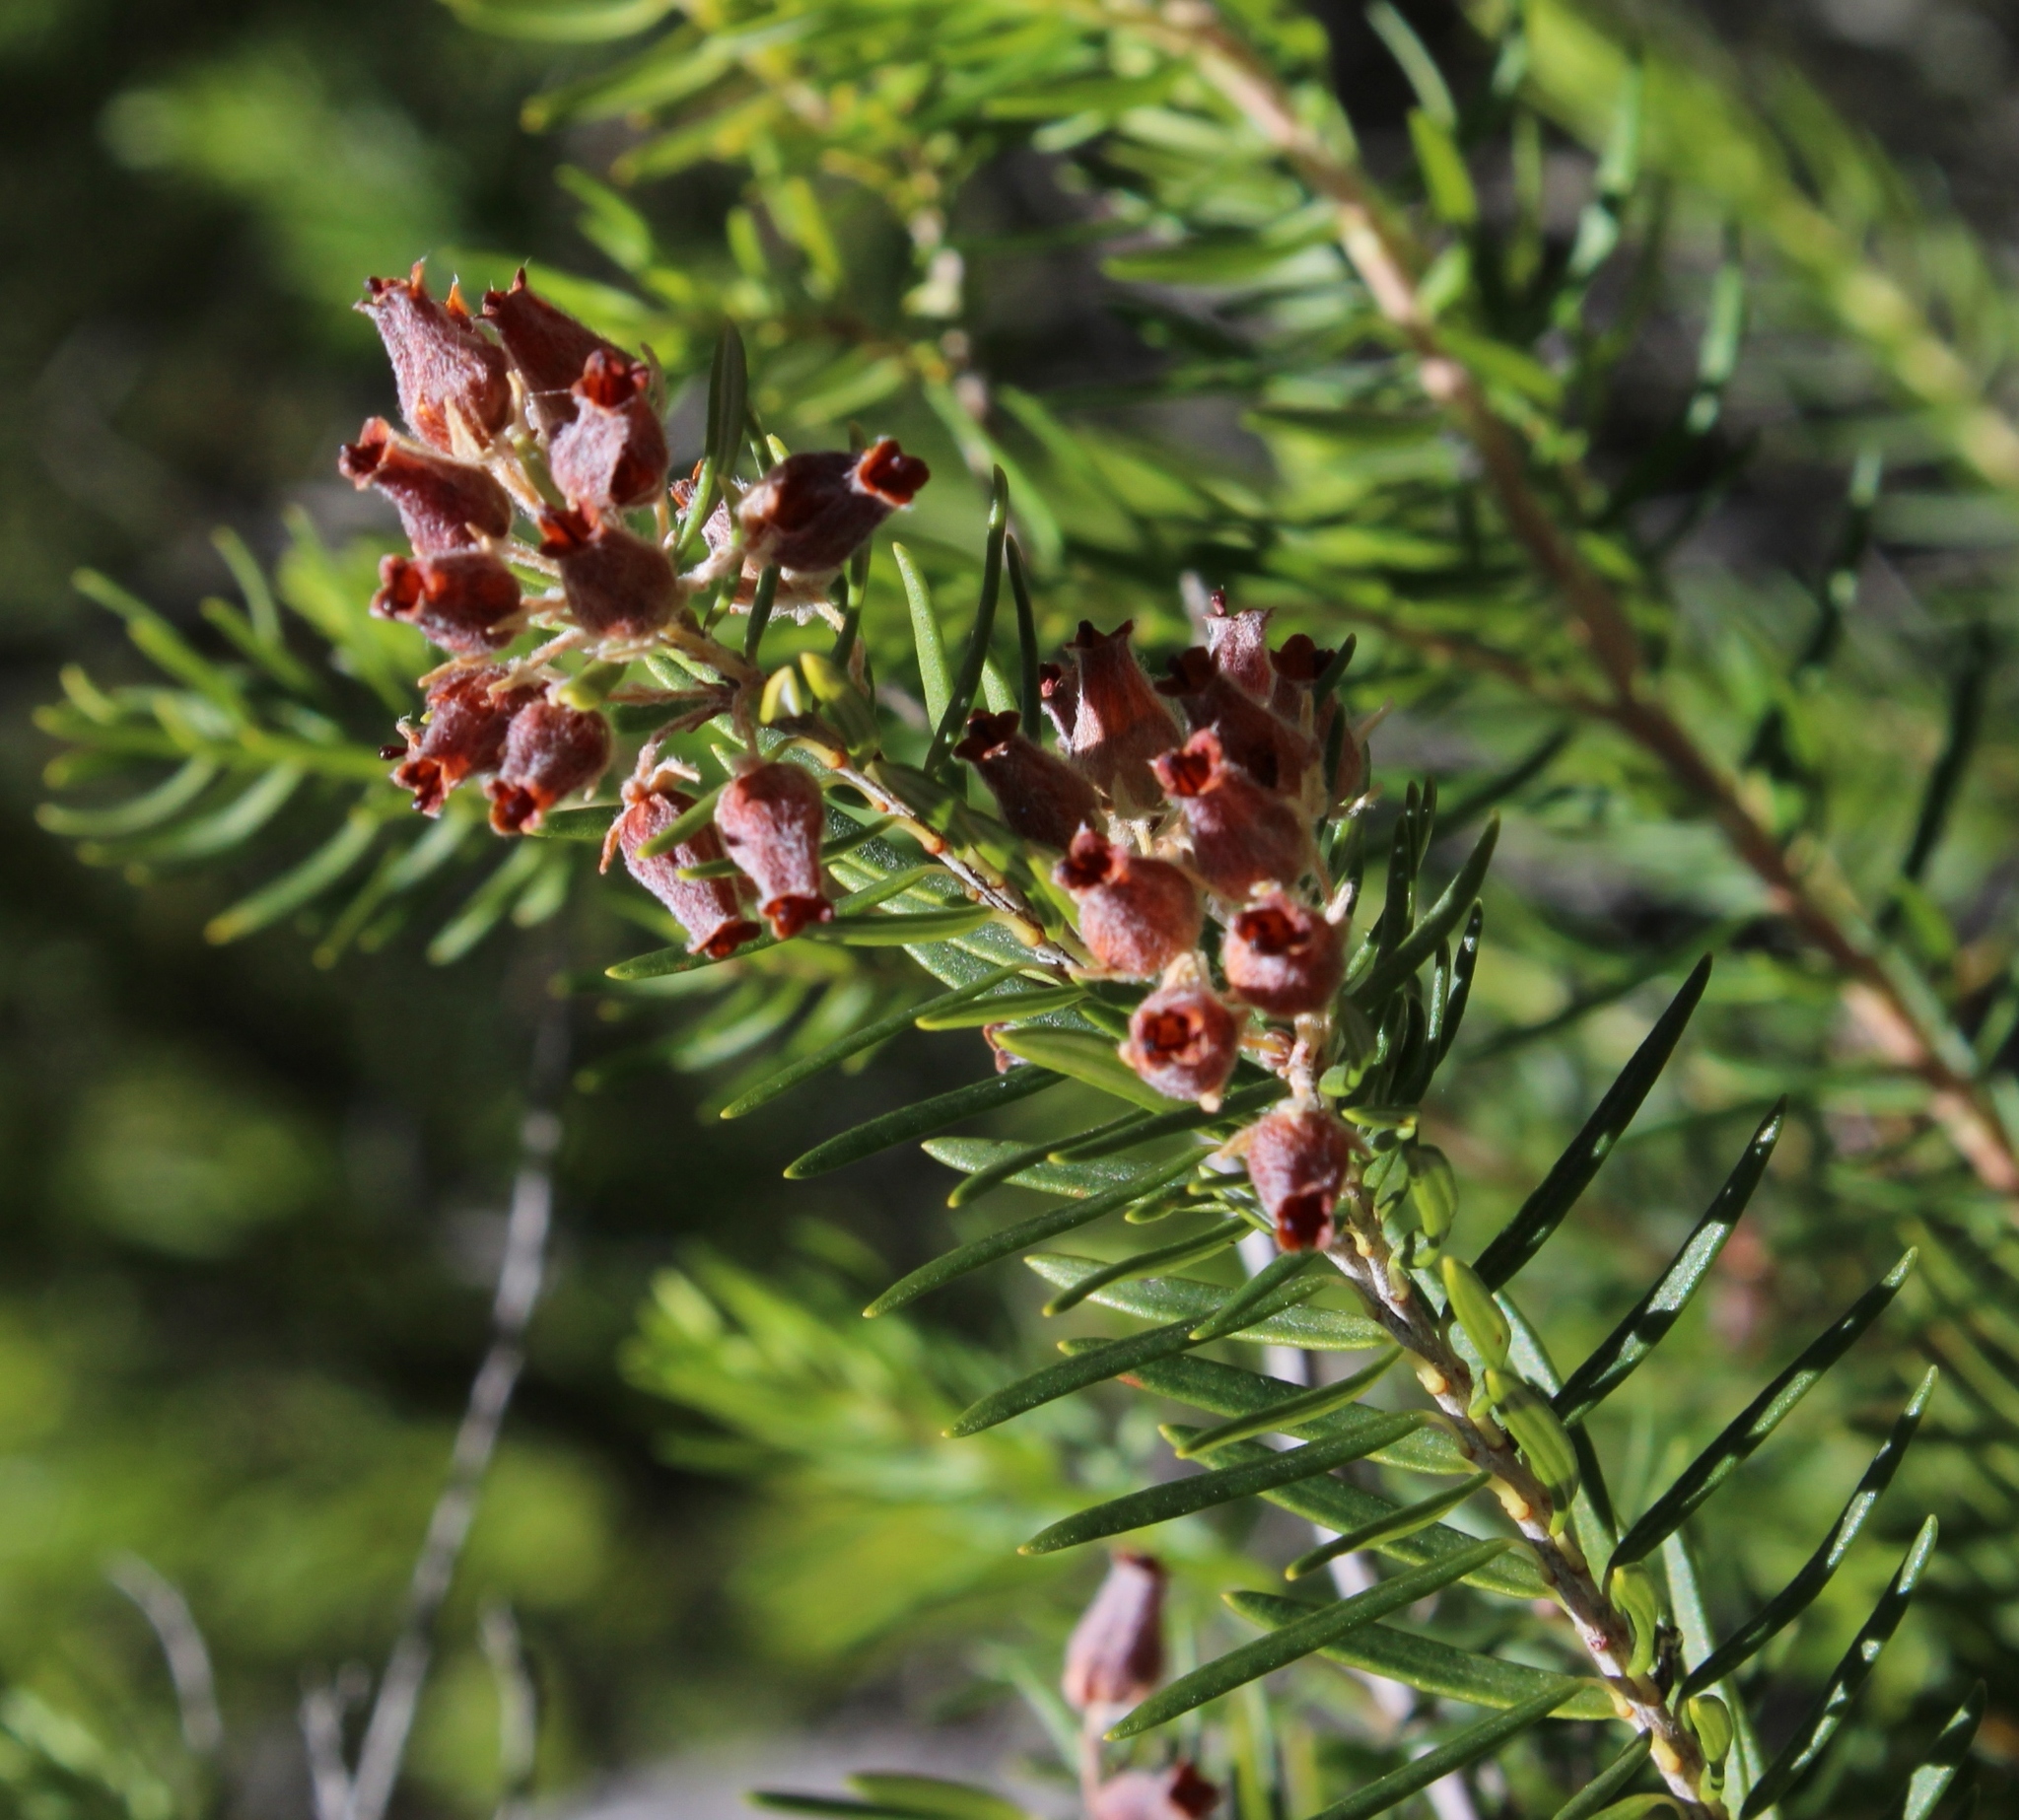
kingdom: Plantae
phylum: Tracheophyta
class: Magnoliopsida
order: Ericales
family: Ericaceae
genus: Erica
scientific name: Erica caffra
